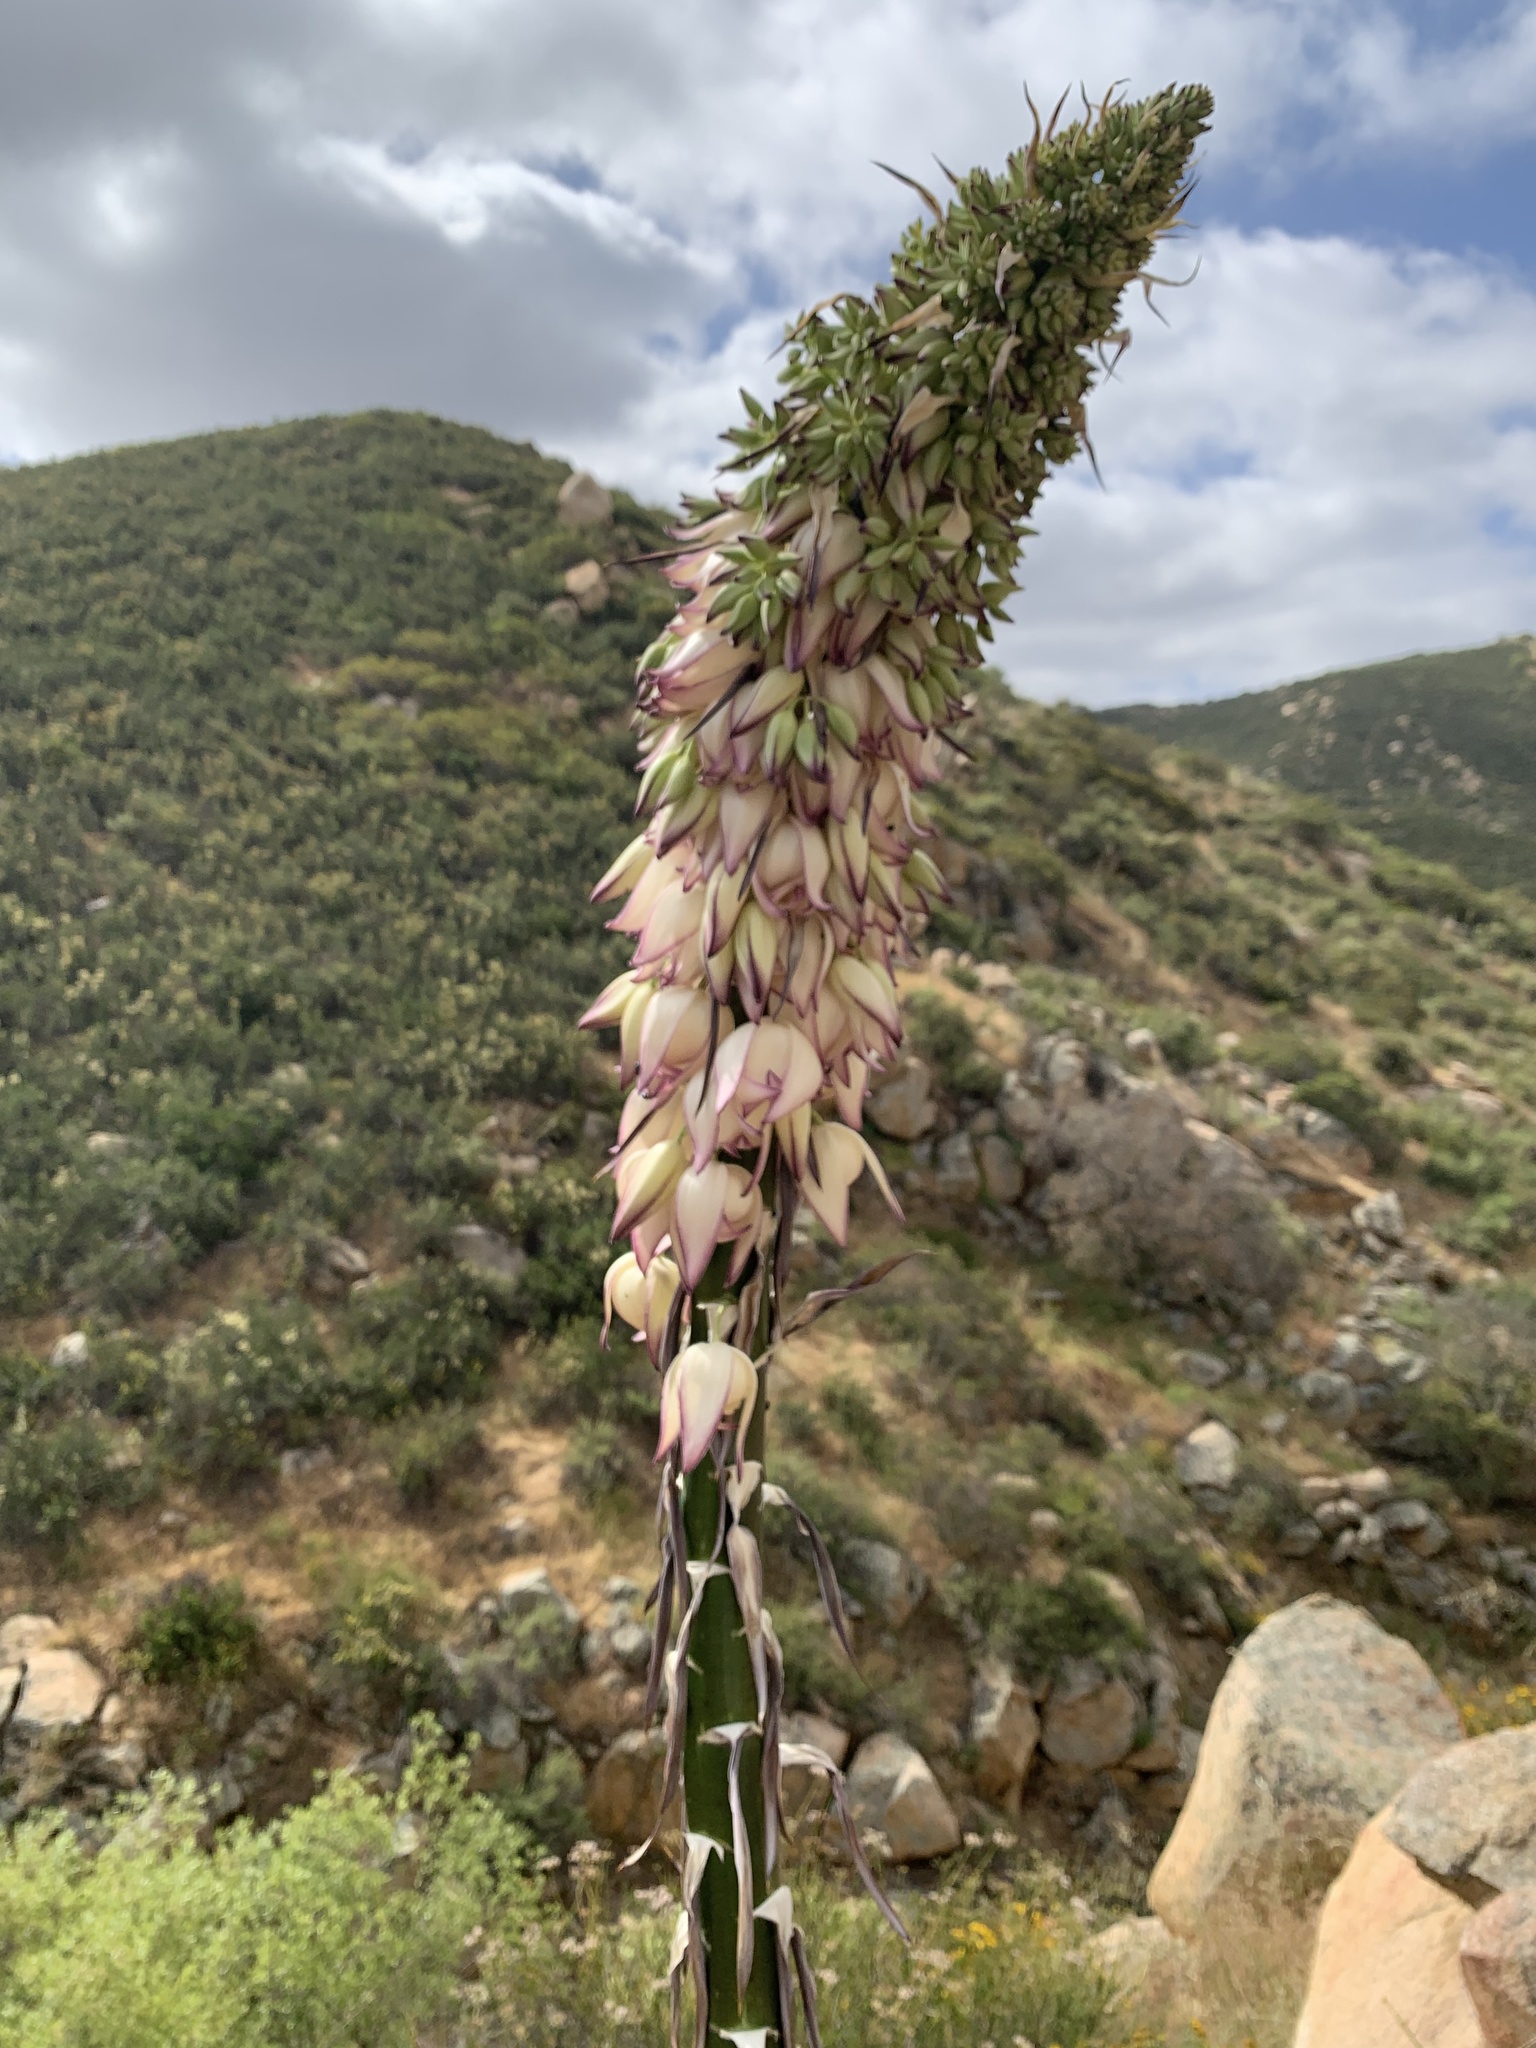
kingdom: Plantae
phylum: Tracheophyta
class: Liliopsida
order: Asparagales
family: Asparagaceae
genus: Hesperoyucca
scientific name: Hesperoyucca whipplei
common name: Our lord's-candle
